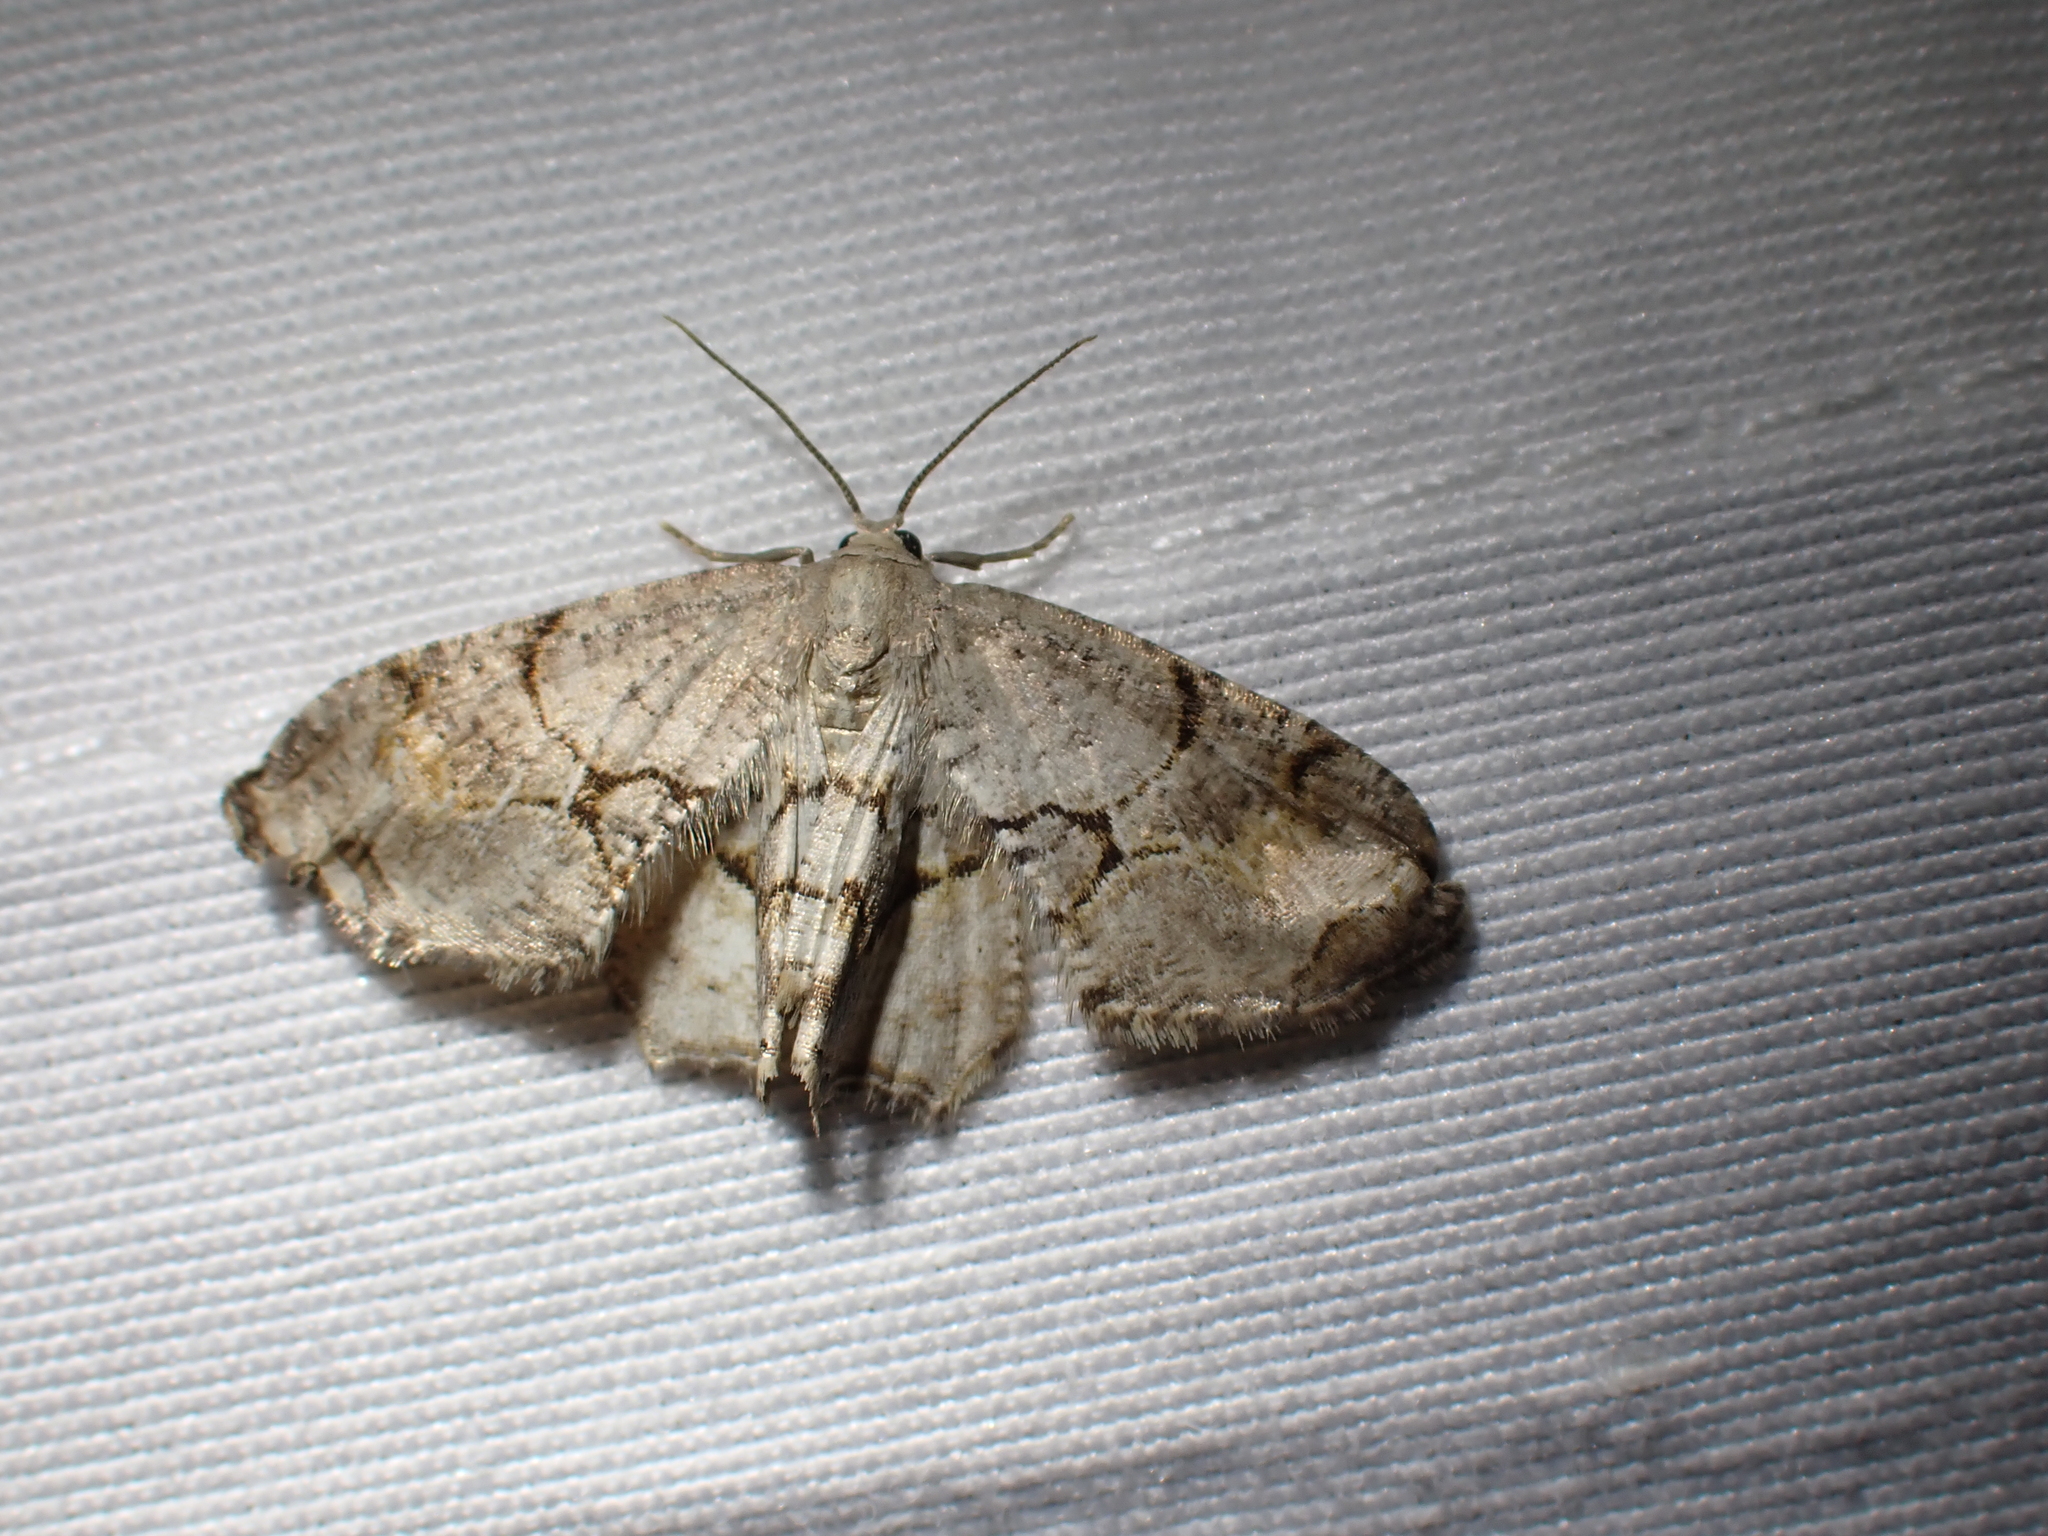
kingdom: Animalia
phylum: Arthropoda
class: Insecta
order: Lepidoptera
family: Uraniidae
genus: Epiplema
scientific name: Epiplema Callizzia amorata
